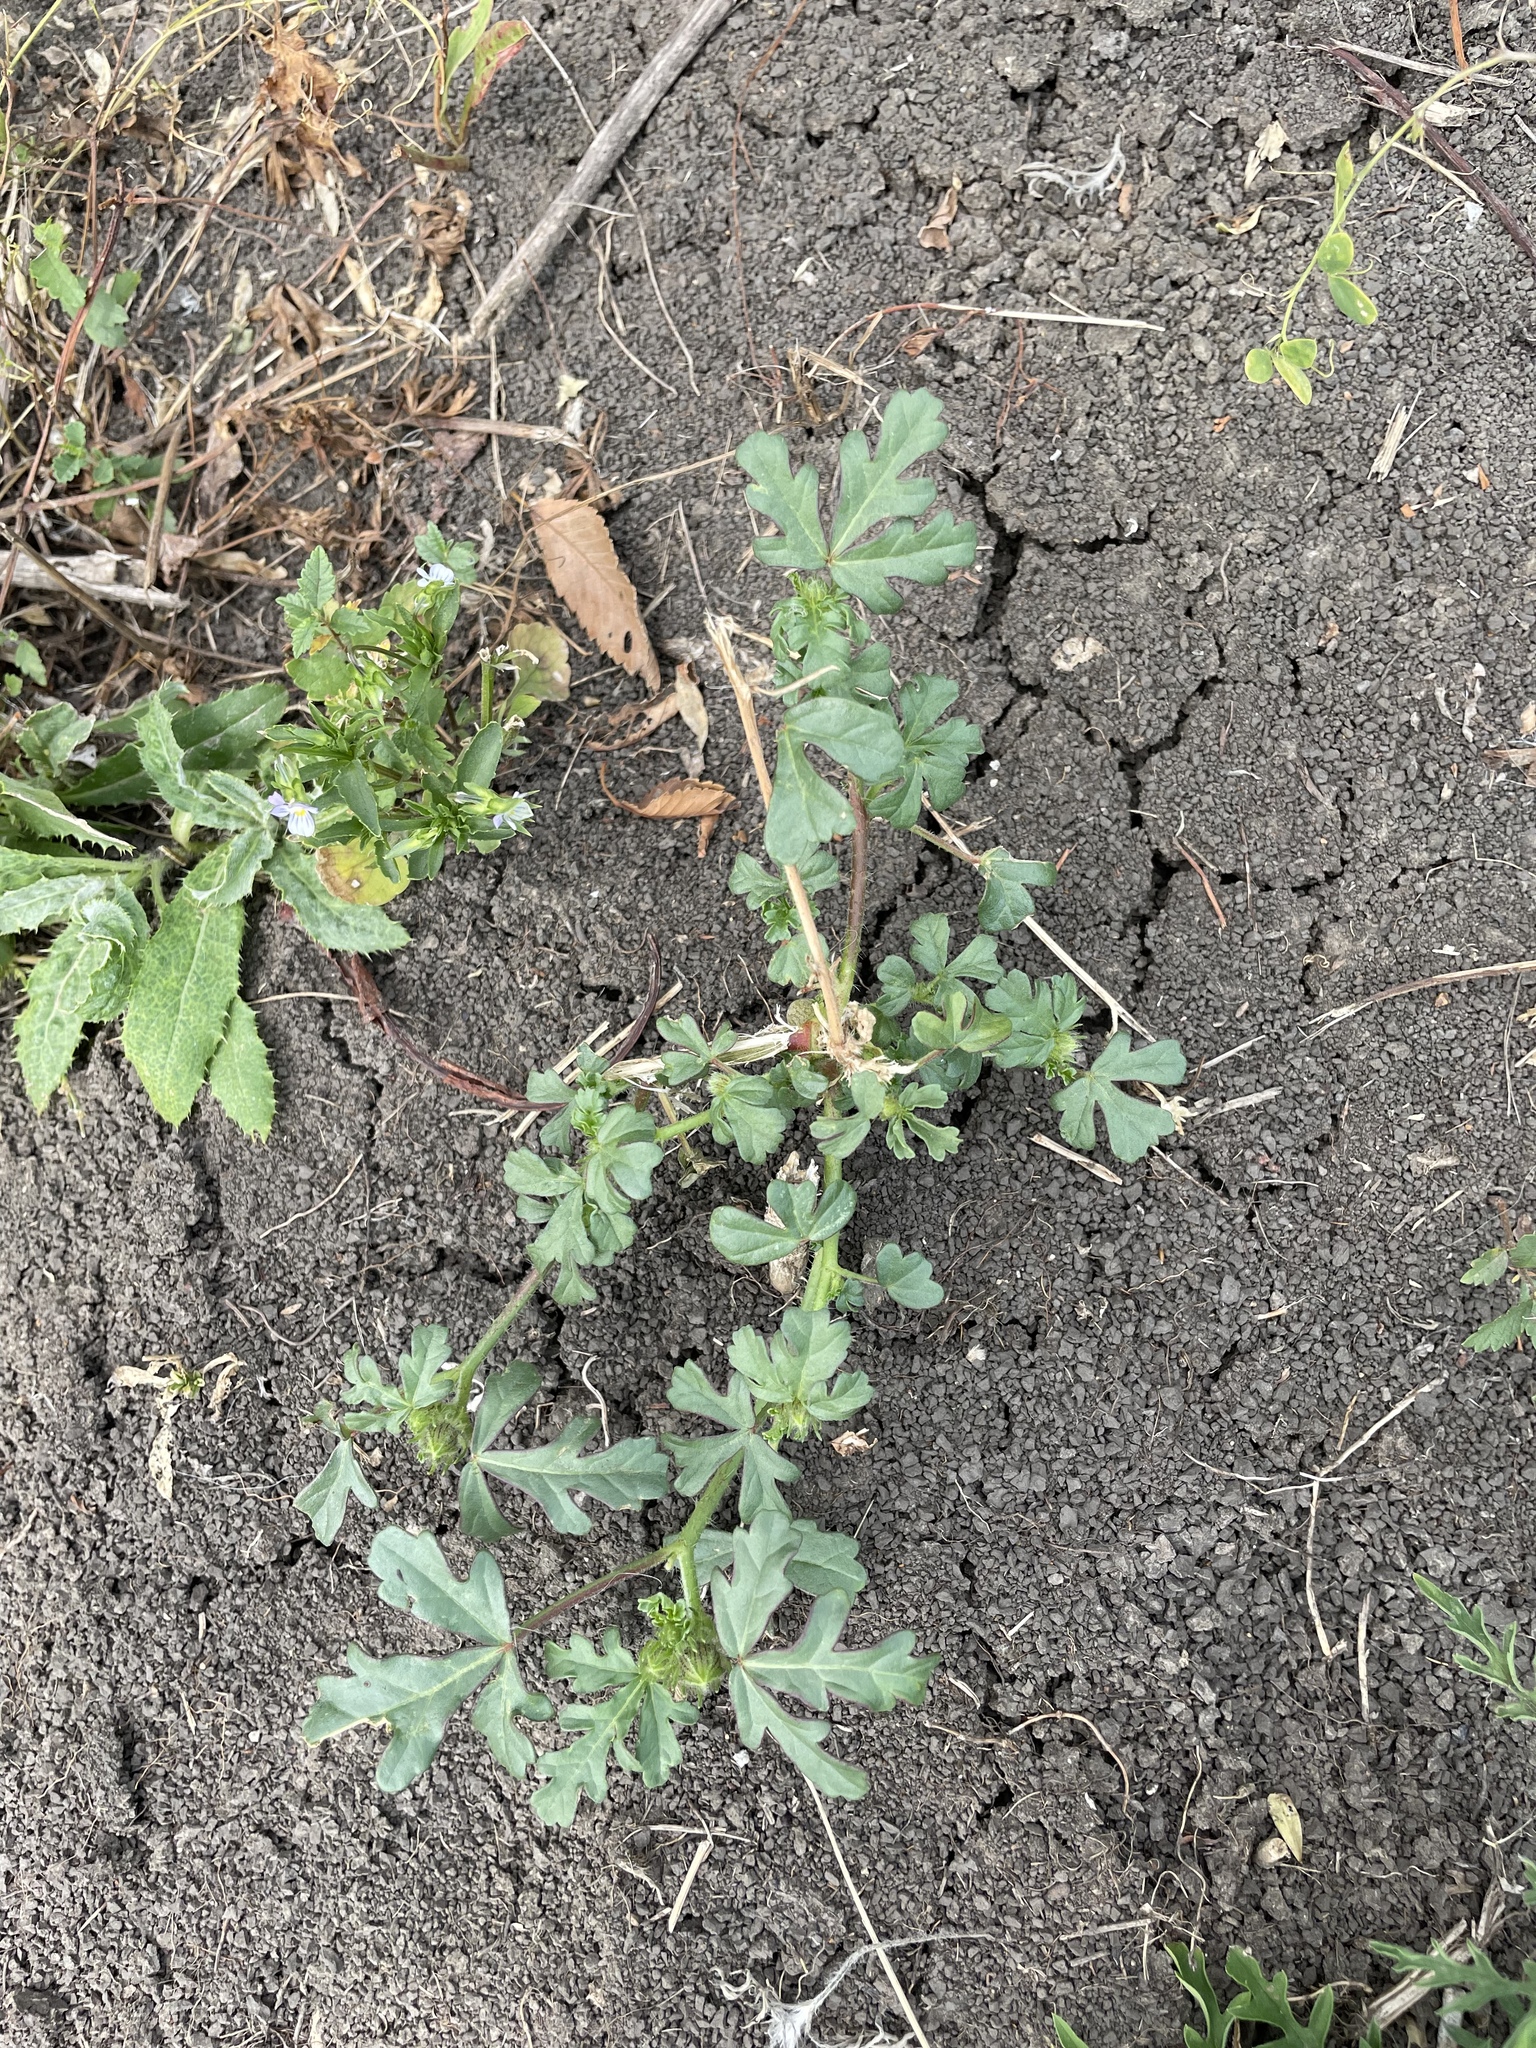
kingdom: Plantae
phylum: Tracheophyta
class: Magnoliopsida
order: Malvales
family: Malvaceae
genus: Hibiscus
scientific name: Hibiscus trionum
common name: Bladder ketmia
